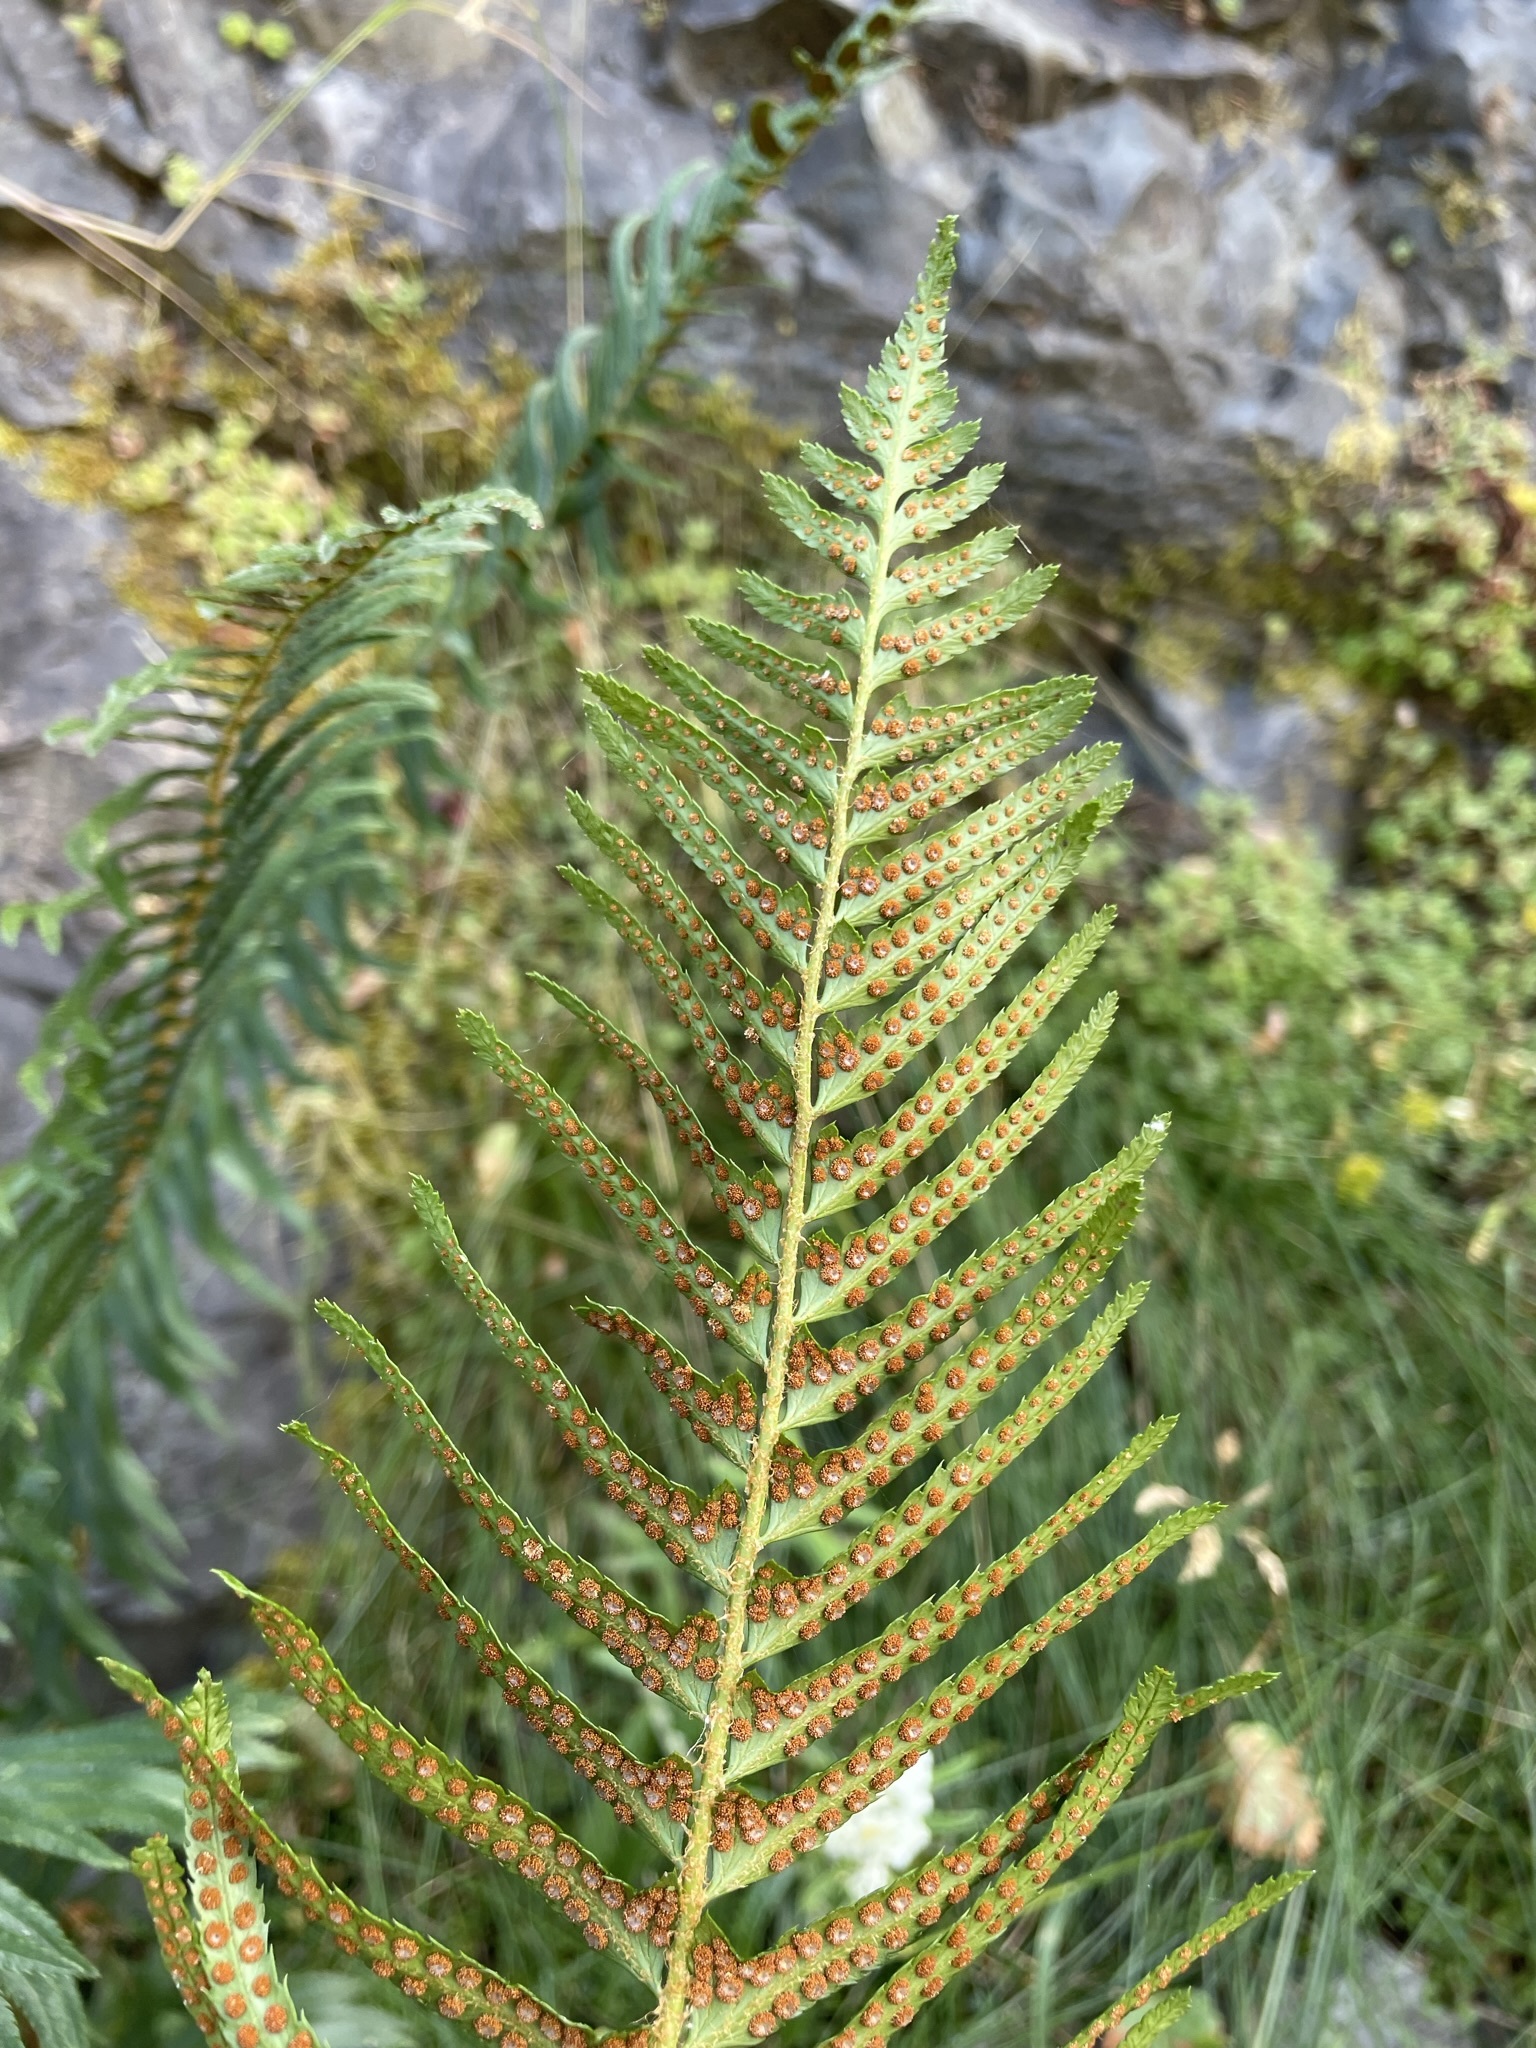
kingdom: Plantae
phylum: Tracheophyta
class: Polypodiopsida
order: Polypodiales
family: Dryopteridaceae
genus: Polystichum
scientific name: Polystichum munitum
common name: Western sword-fern
